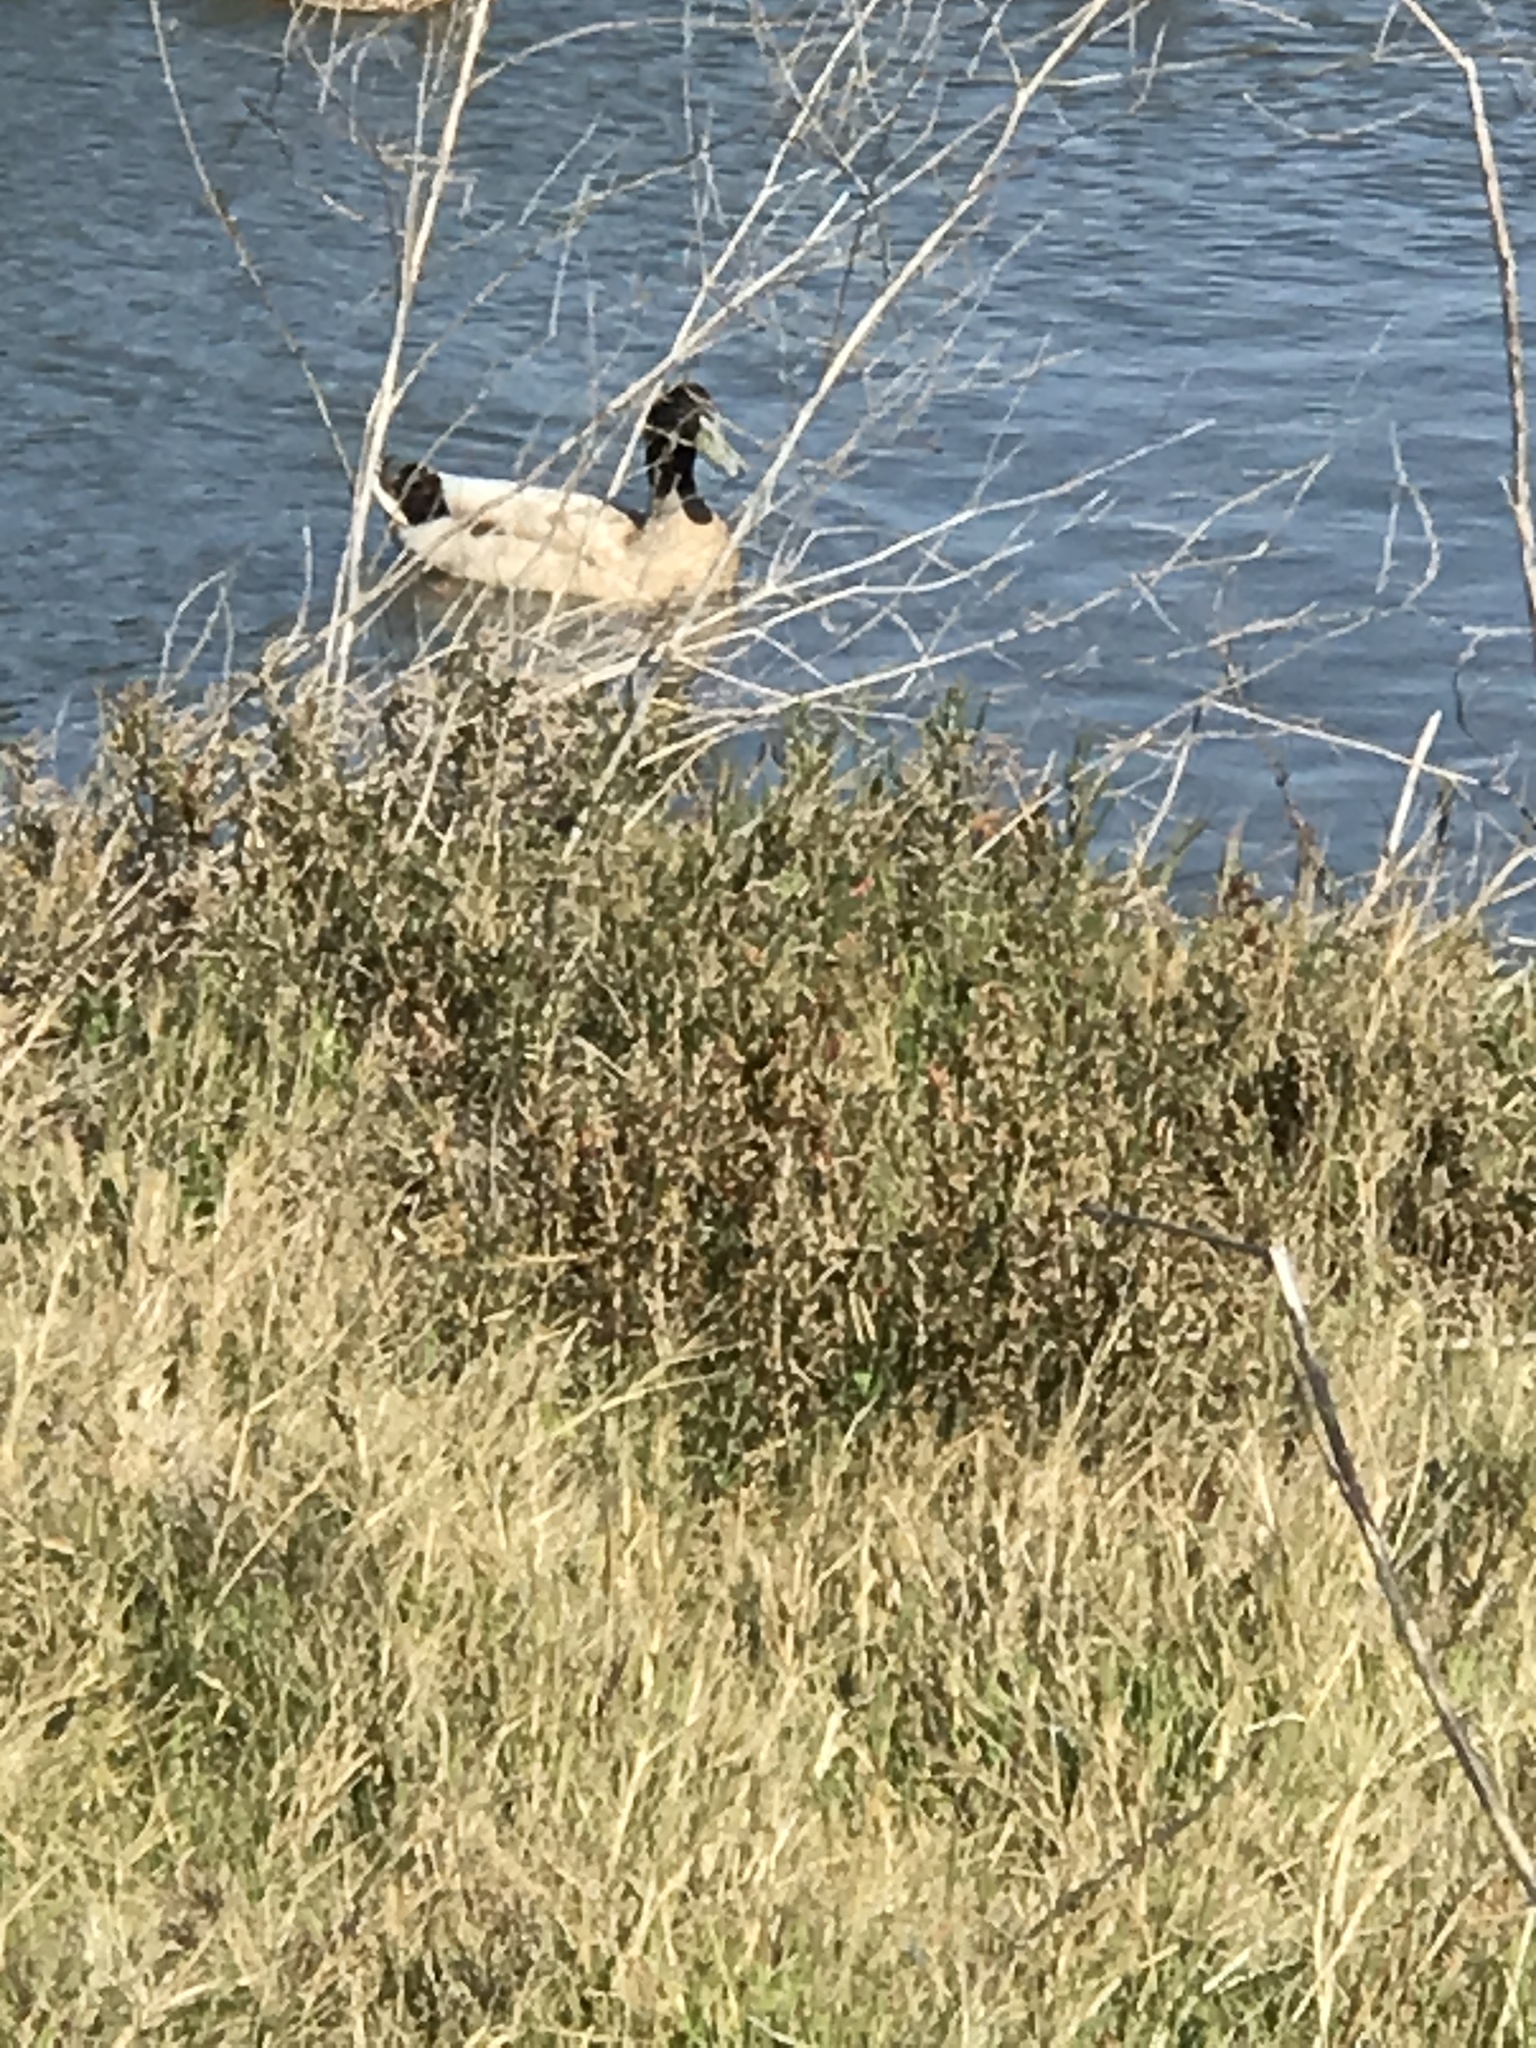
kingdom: Animalia
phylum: Chordata
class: Aves
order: Anseriformes
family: Anatidae
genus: Anas
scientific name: Anas platyrhynchos
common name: Mallard
